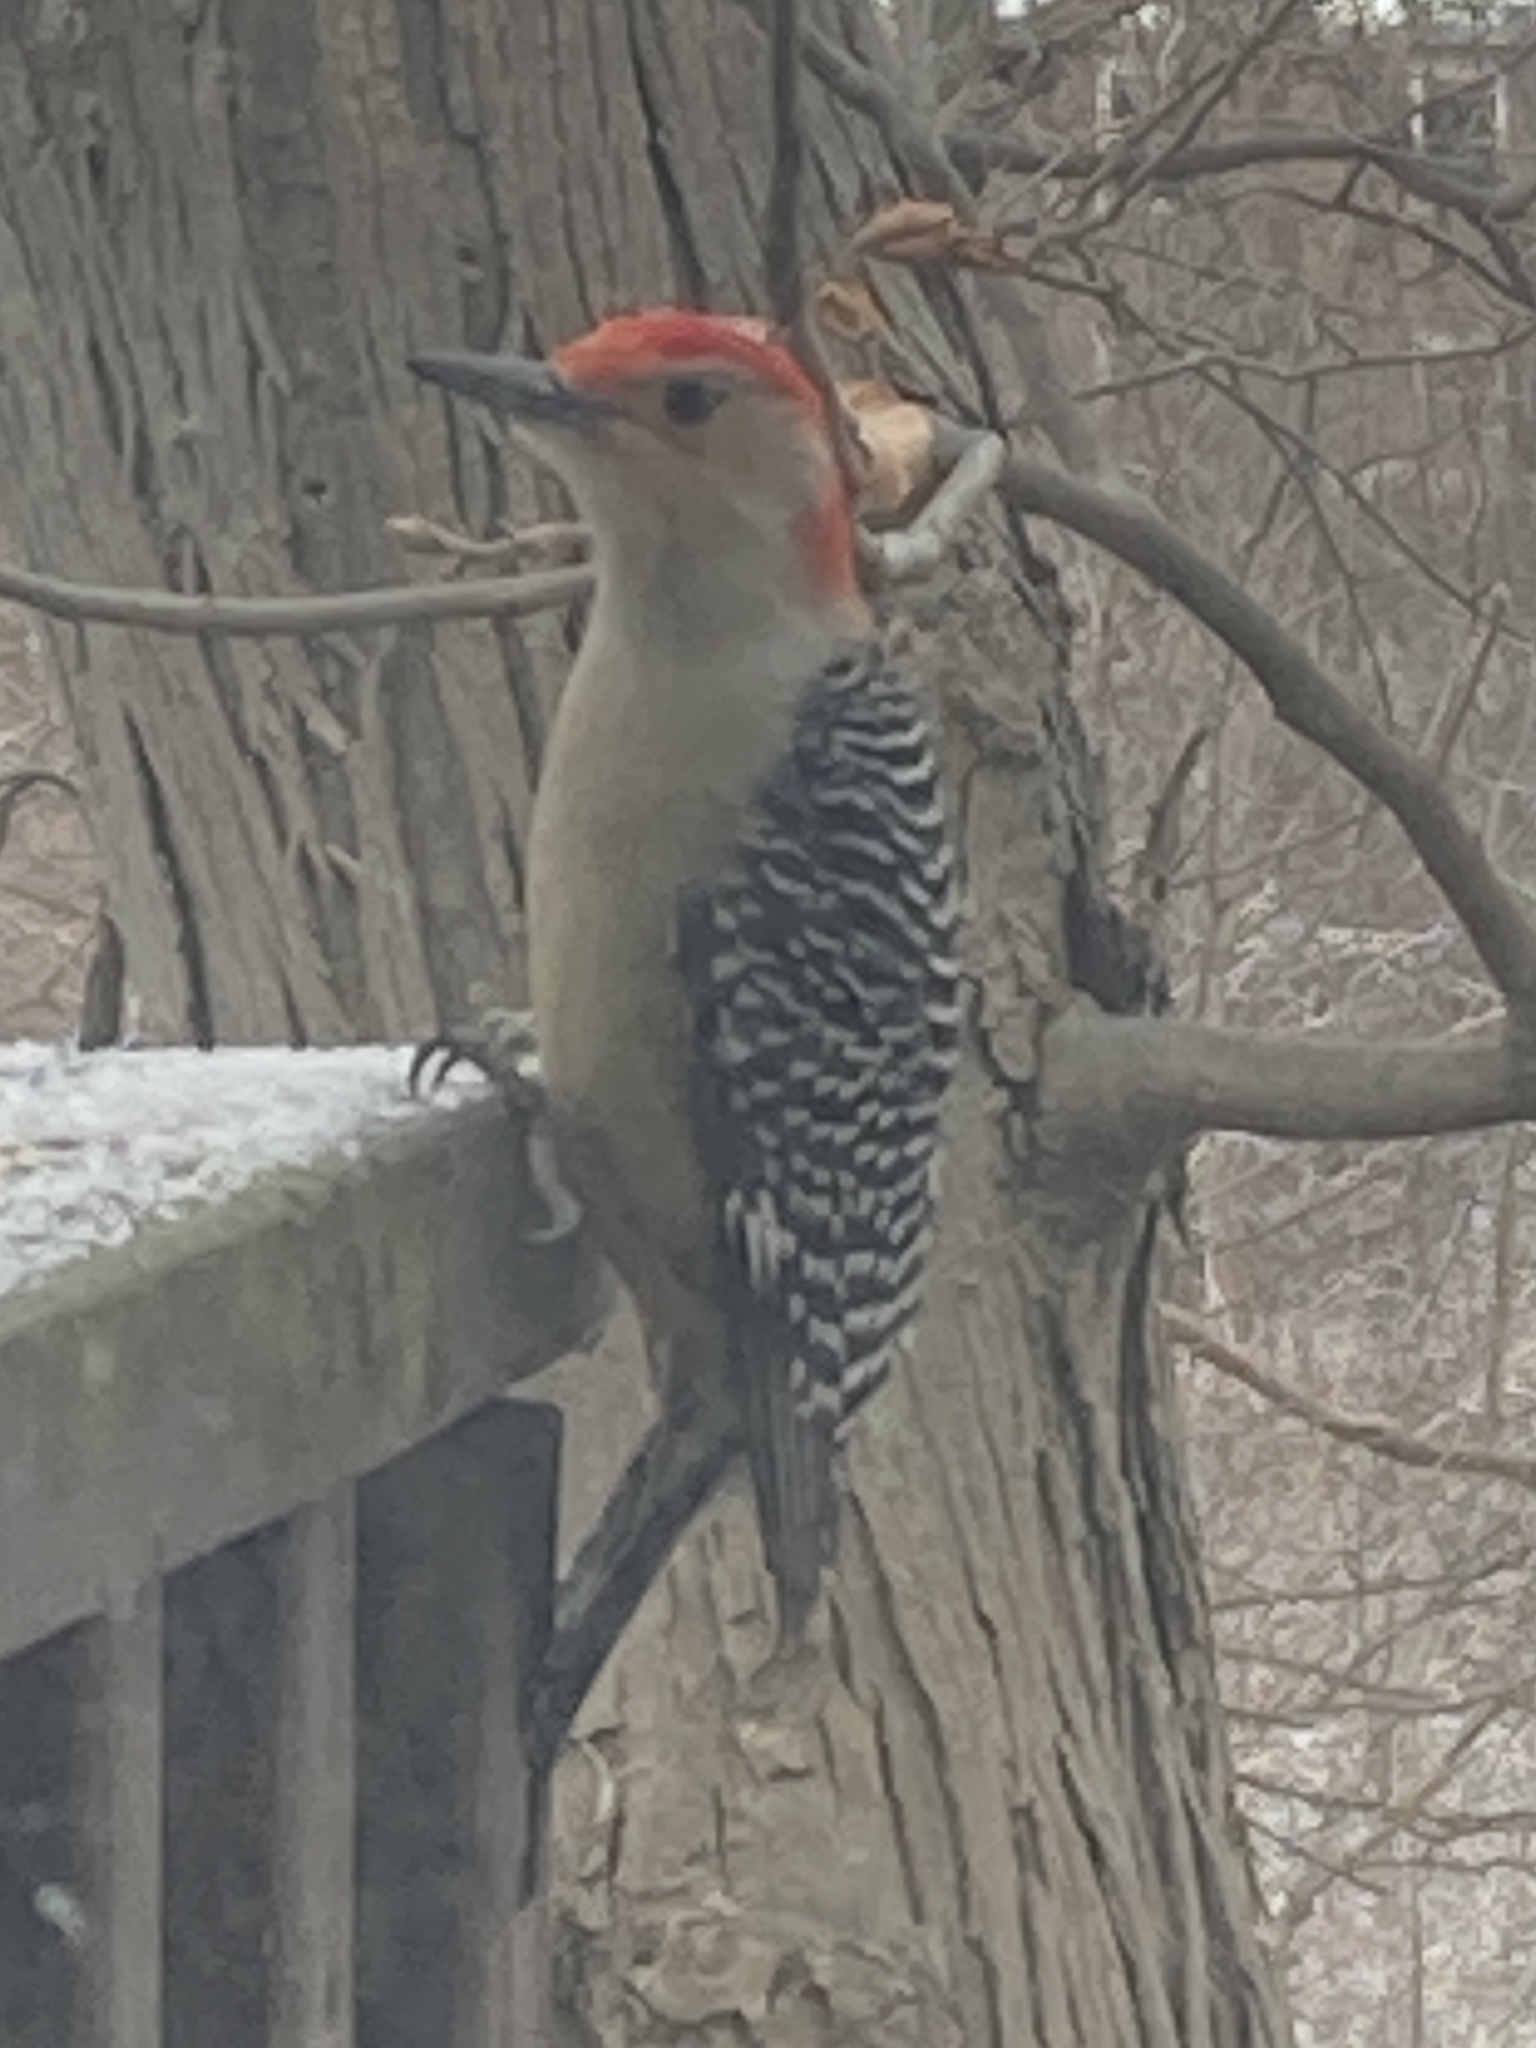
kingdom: Animalia
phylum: Chordata
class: Aves
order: Piciformes
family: Picidae
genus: Melanerpes
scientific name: Melanerpes carolinus
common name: Red-bellied woodpecker
